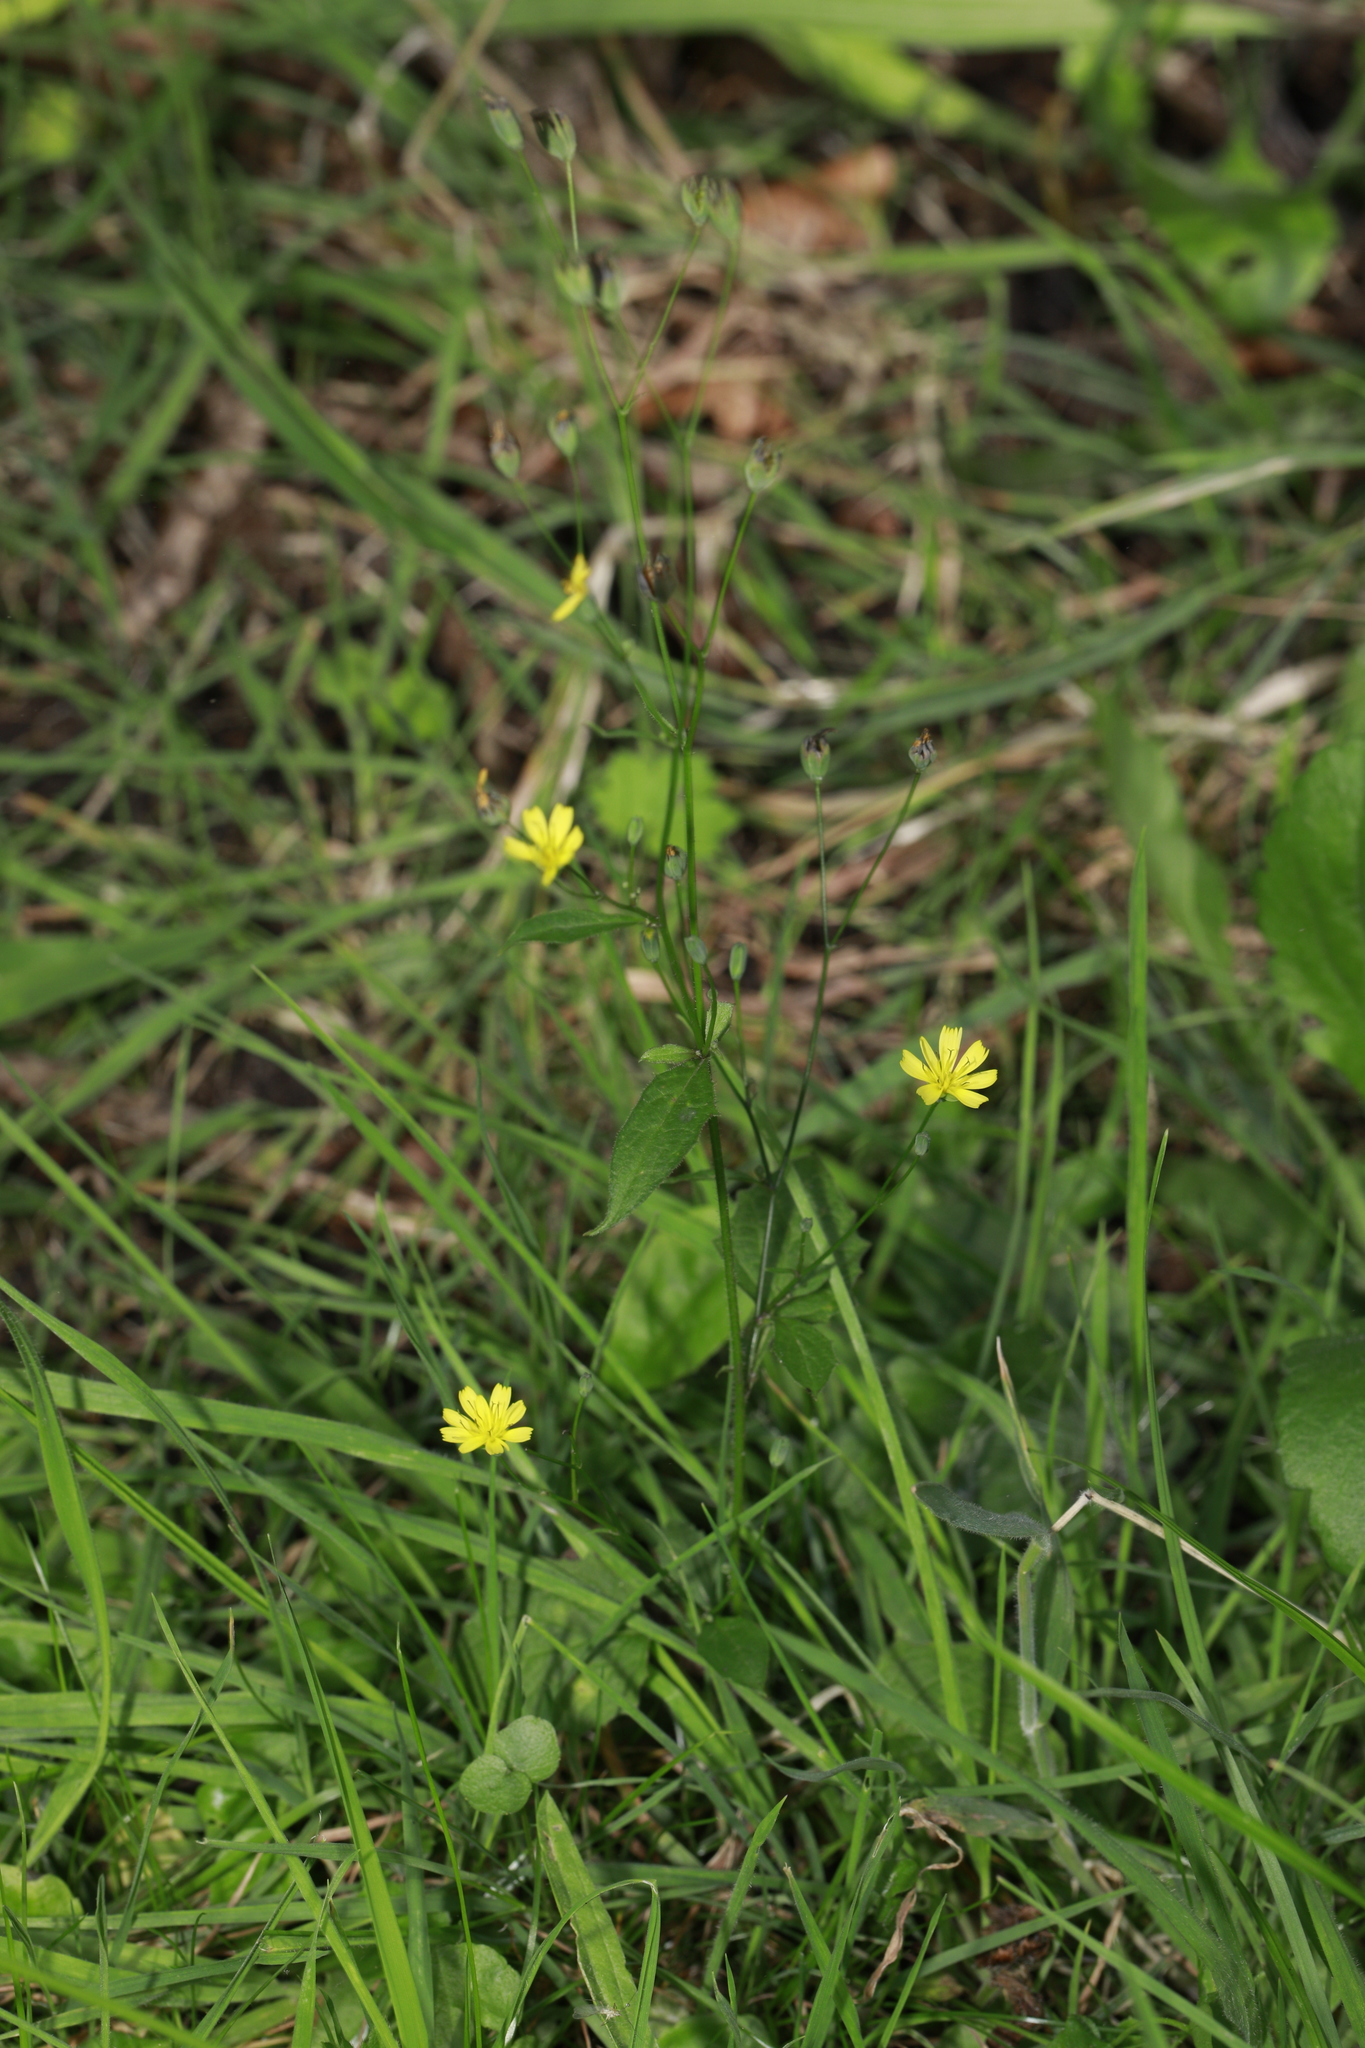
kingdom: Plantae
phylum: Tracheophyta
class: Magnoliopsida
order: Asterales
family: Asteraceae
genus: Lapsana
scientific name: Lapsana communis
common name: Nipplewort
